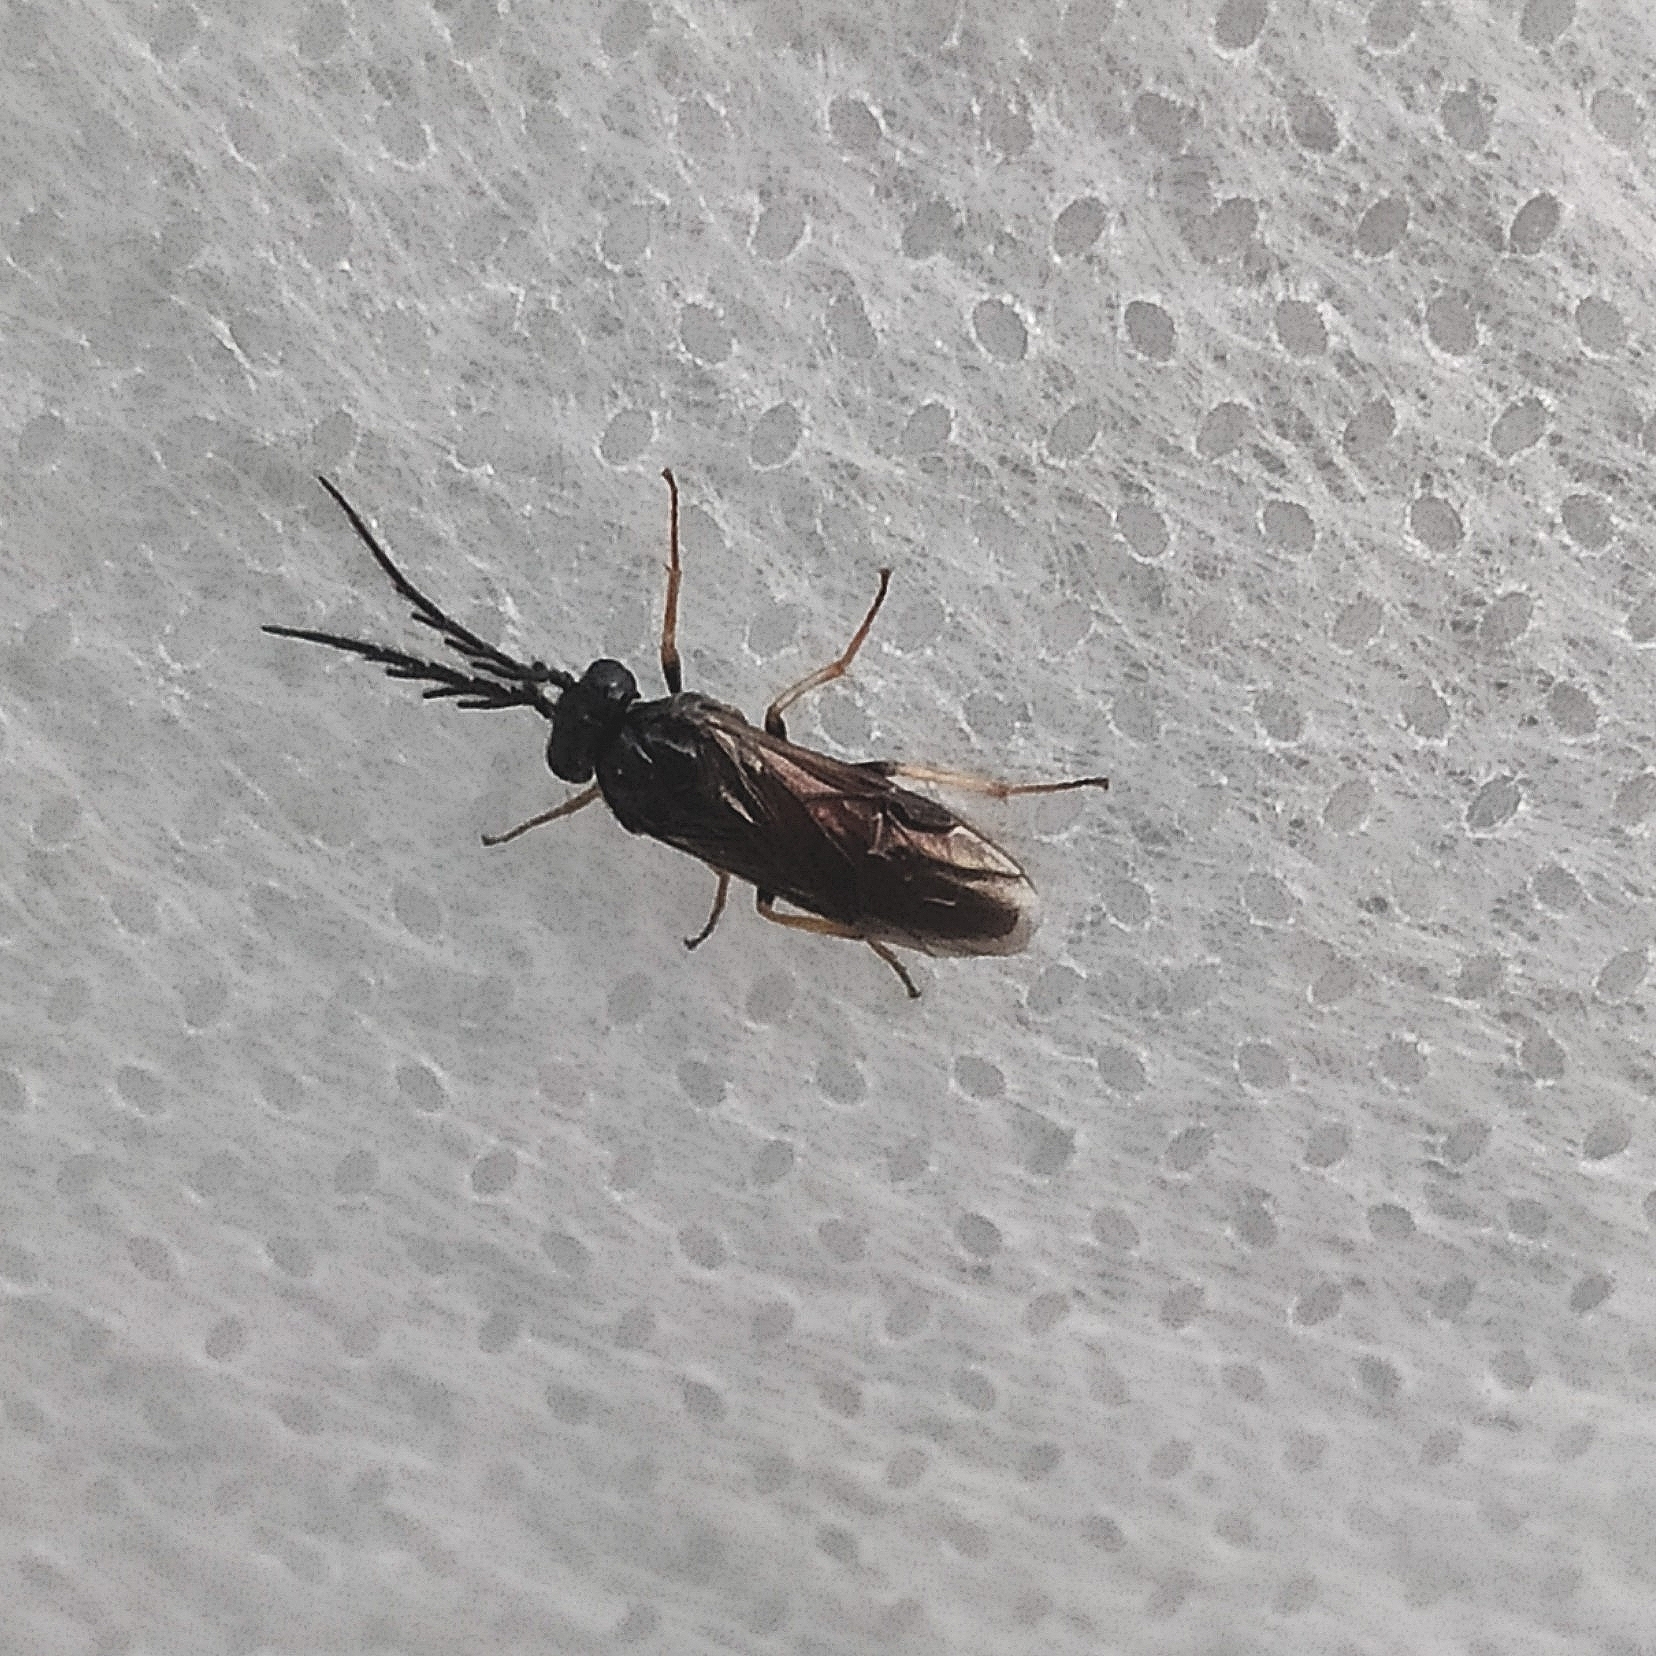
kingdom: Animalia
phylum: Arthropoda
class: Insecta
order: Hymenoptera
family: Tenthredinidae
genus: Cladius
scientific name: Cladius pectinicornis
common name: Sawfly
